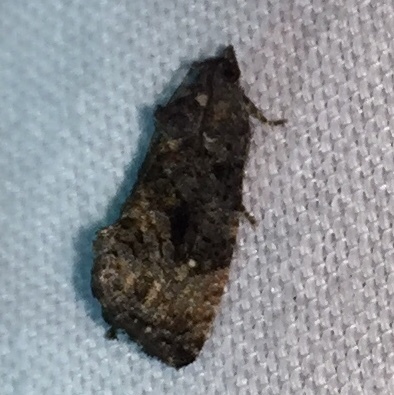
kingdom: Animalia
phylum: Arthropoda
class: Insecta
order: Lepidoptera
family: Tortricidae
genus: Gymnandrosoma
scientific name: Gymnandrosoma punctidiscanum
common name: Dotted ecdytolopha moth
